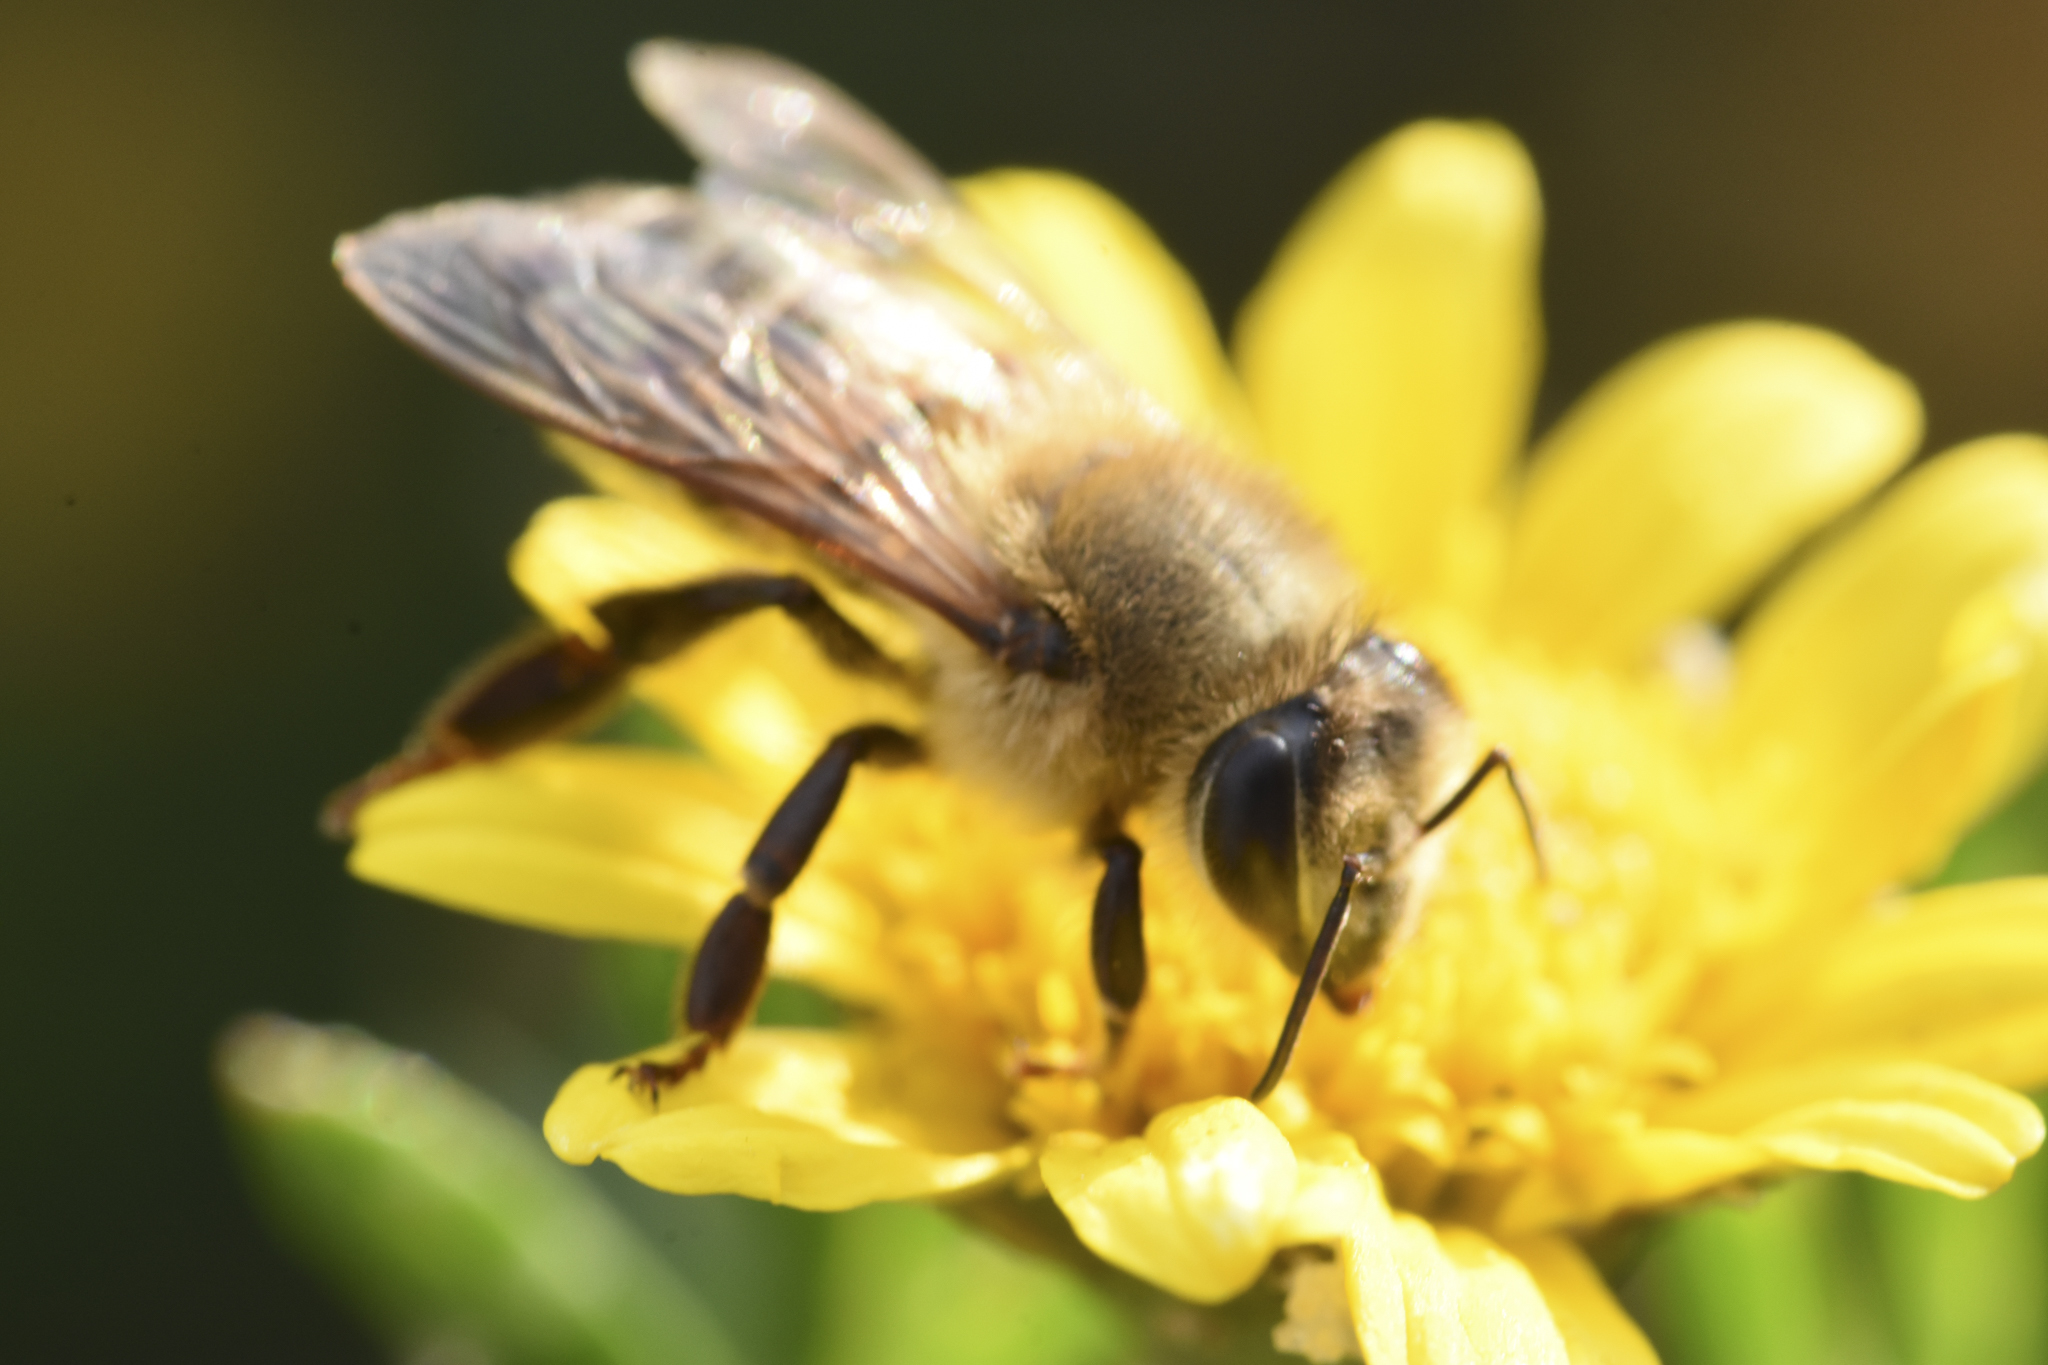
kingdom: Animalia
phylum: Arthropoda
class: Insecta
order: Hymenoptera
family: Apidae
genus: Apis
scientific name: Apis mellifera
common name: Honey bee
